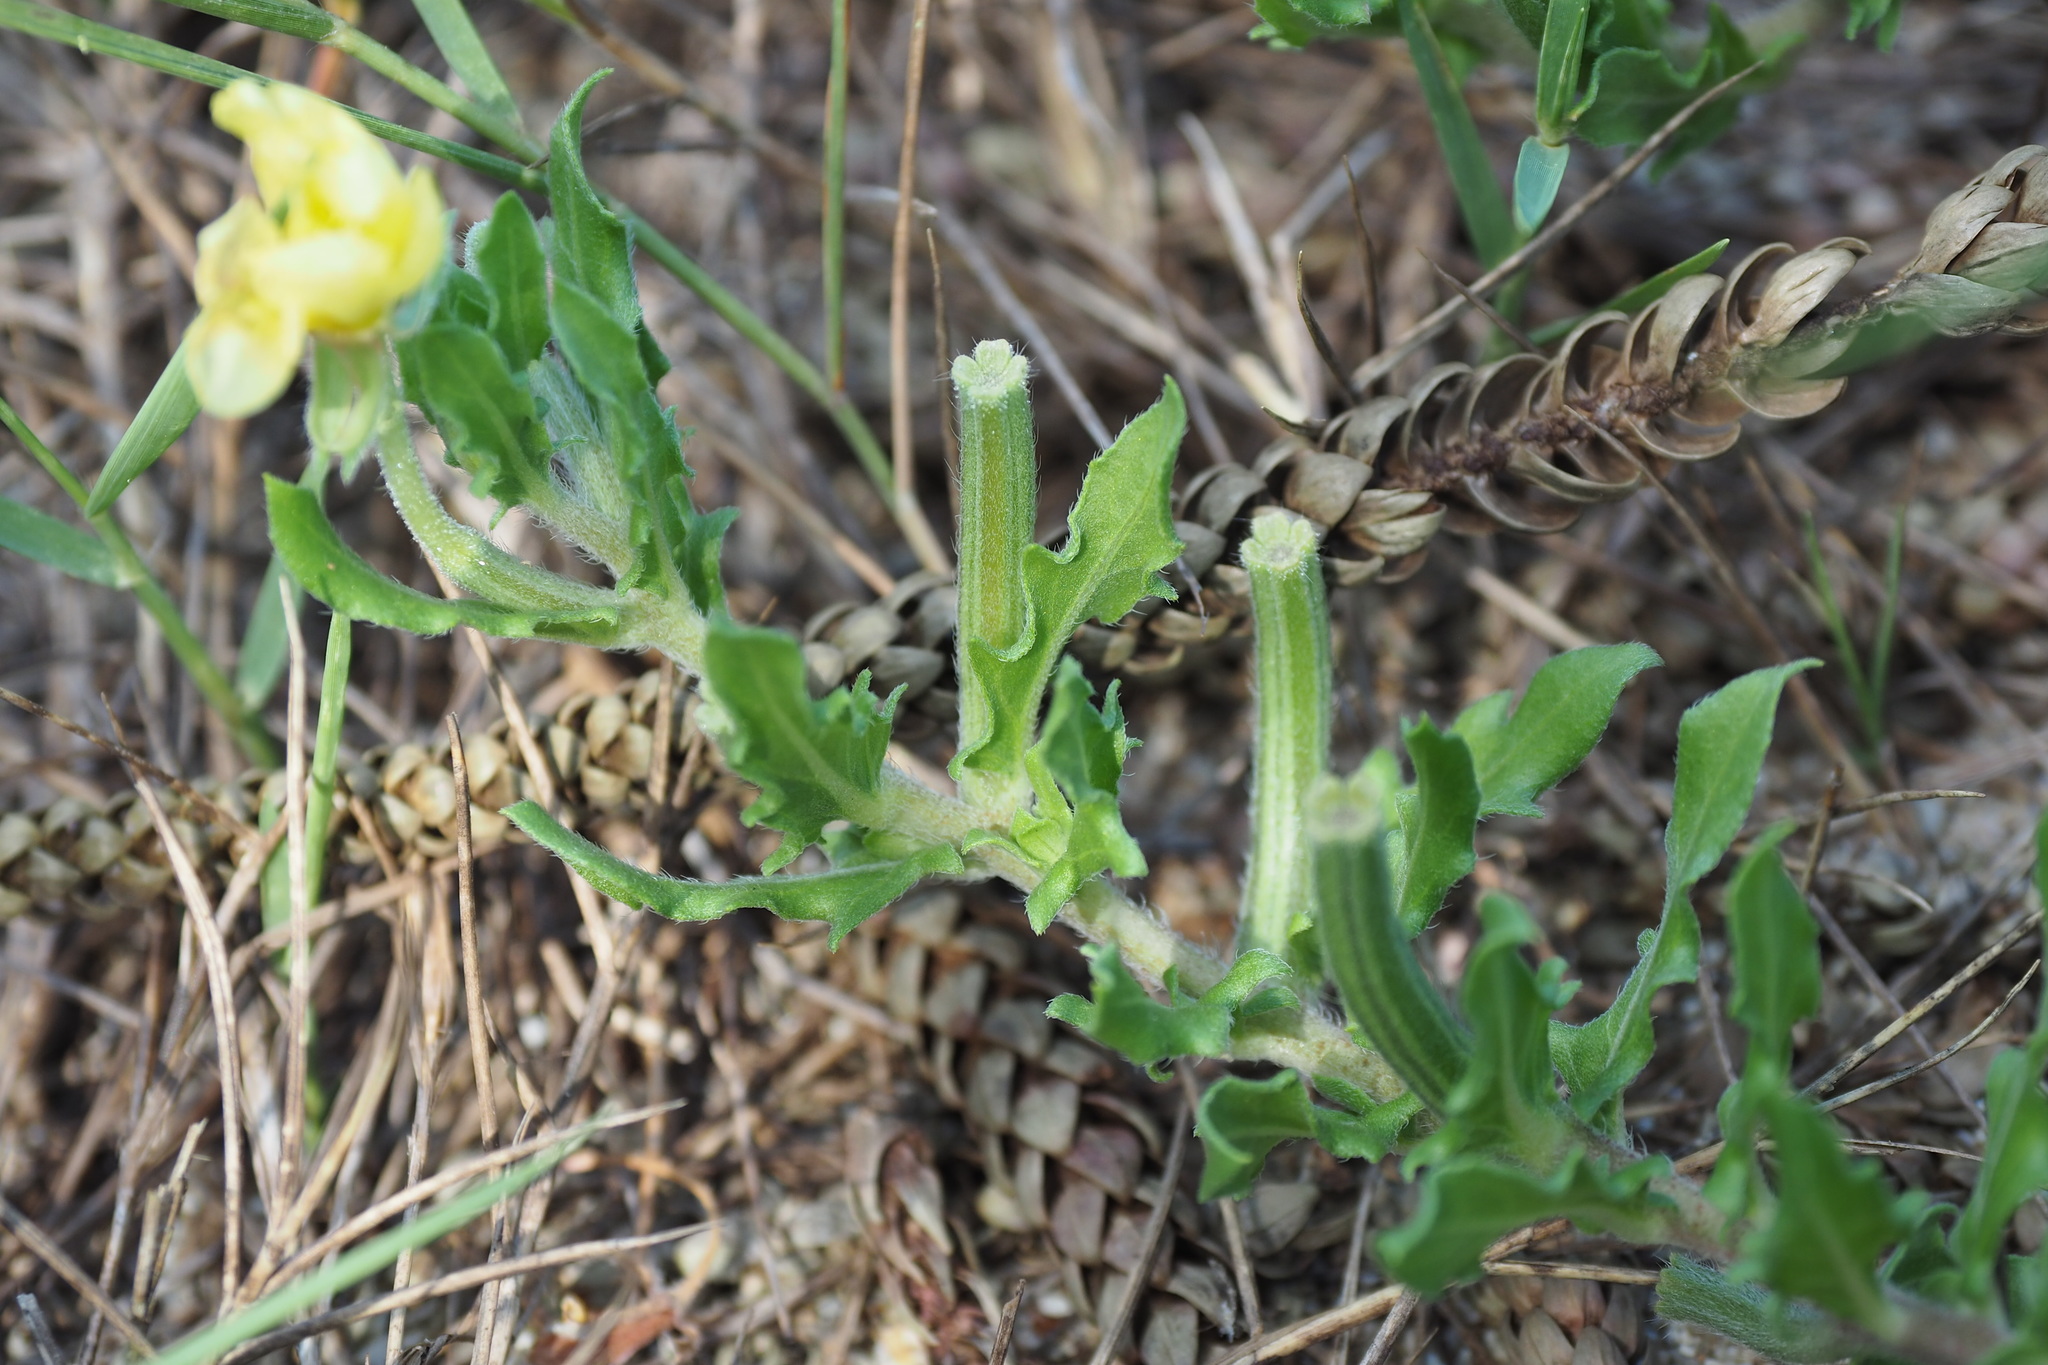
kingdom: Plantae
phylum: Tracheophyta
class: Magnoliopsida
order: Myrtales
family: Onagraceae
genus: Oenothera
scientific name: Oenothera laciniata
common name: Cut-leaved evening-primrose
